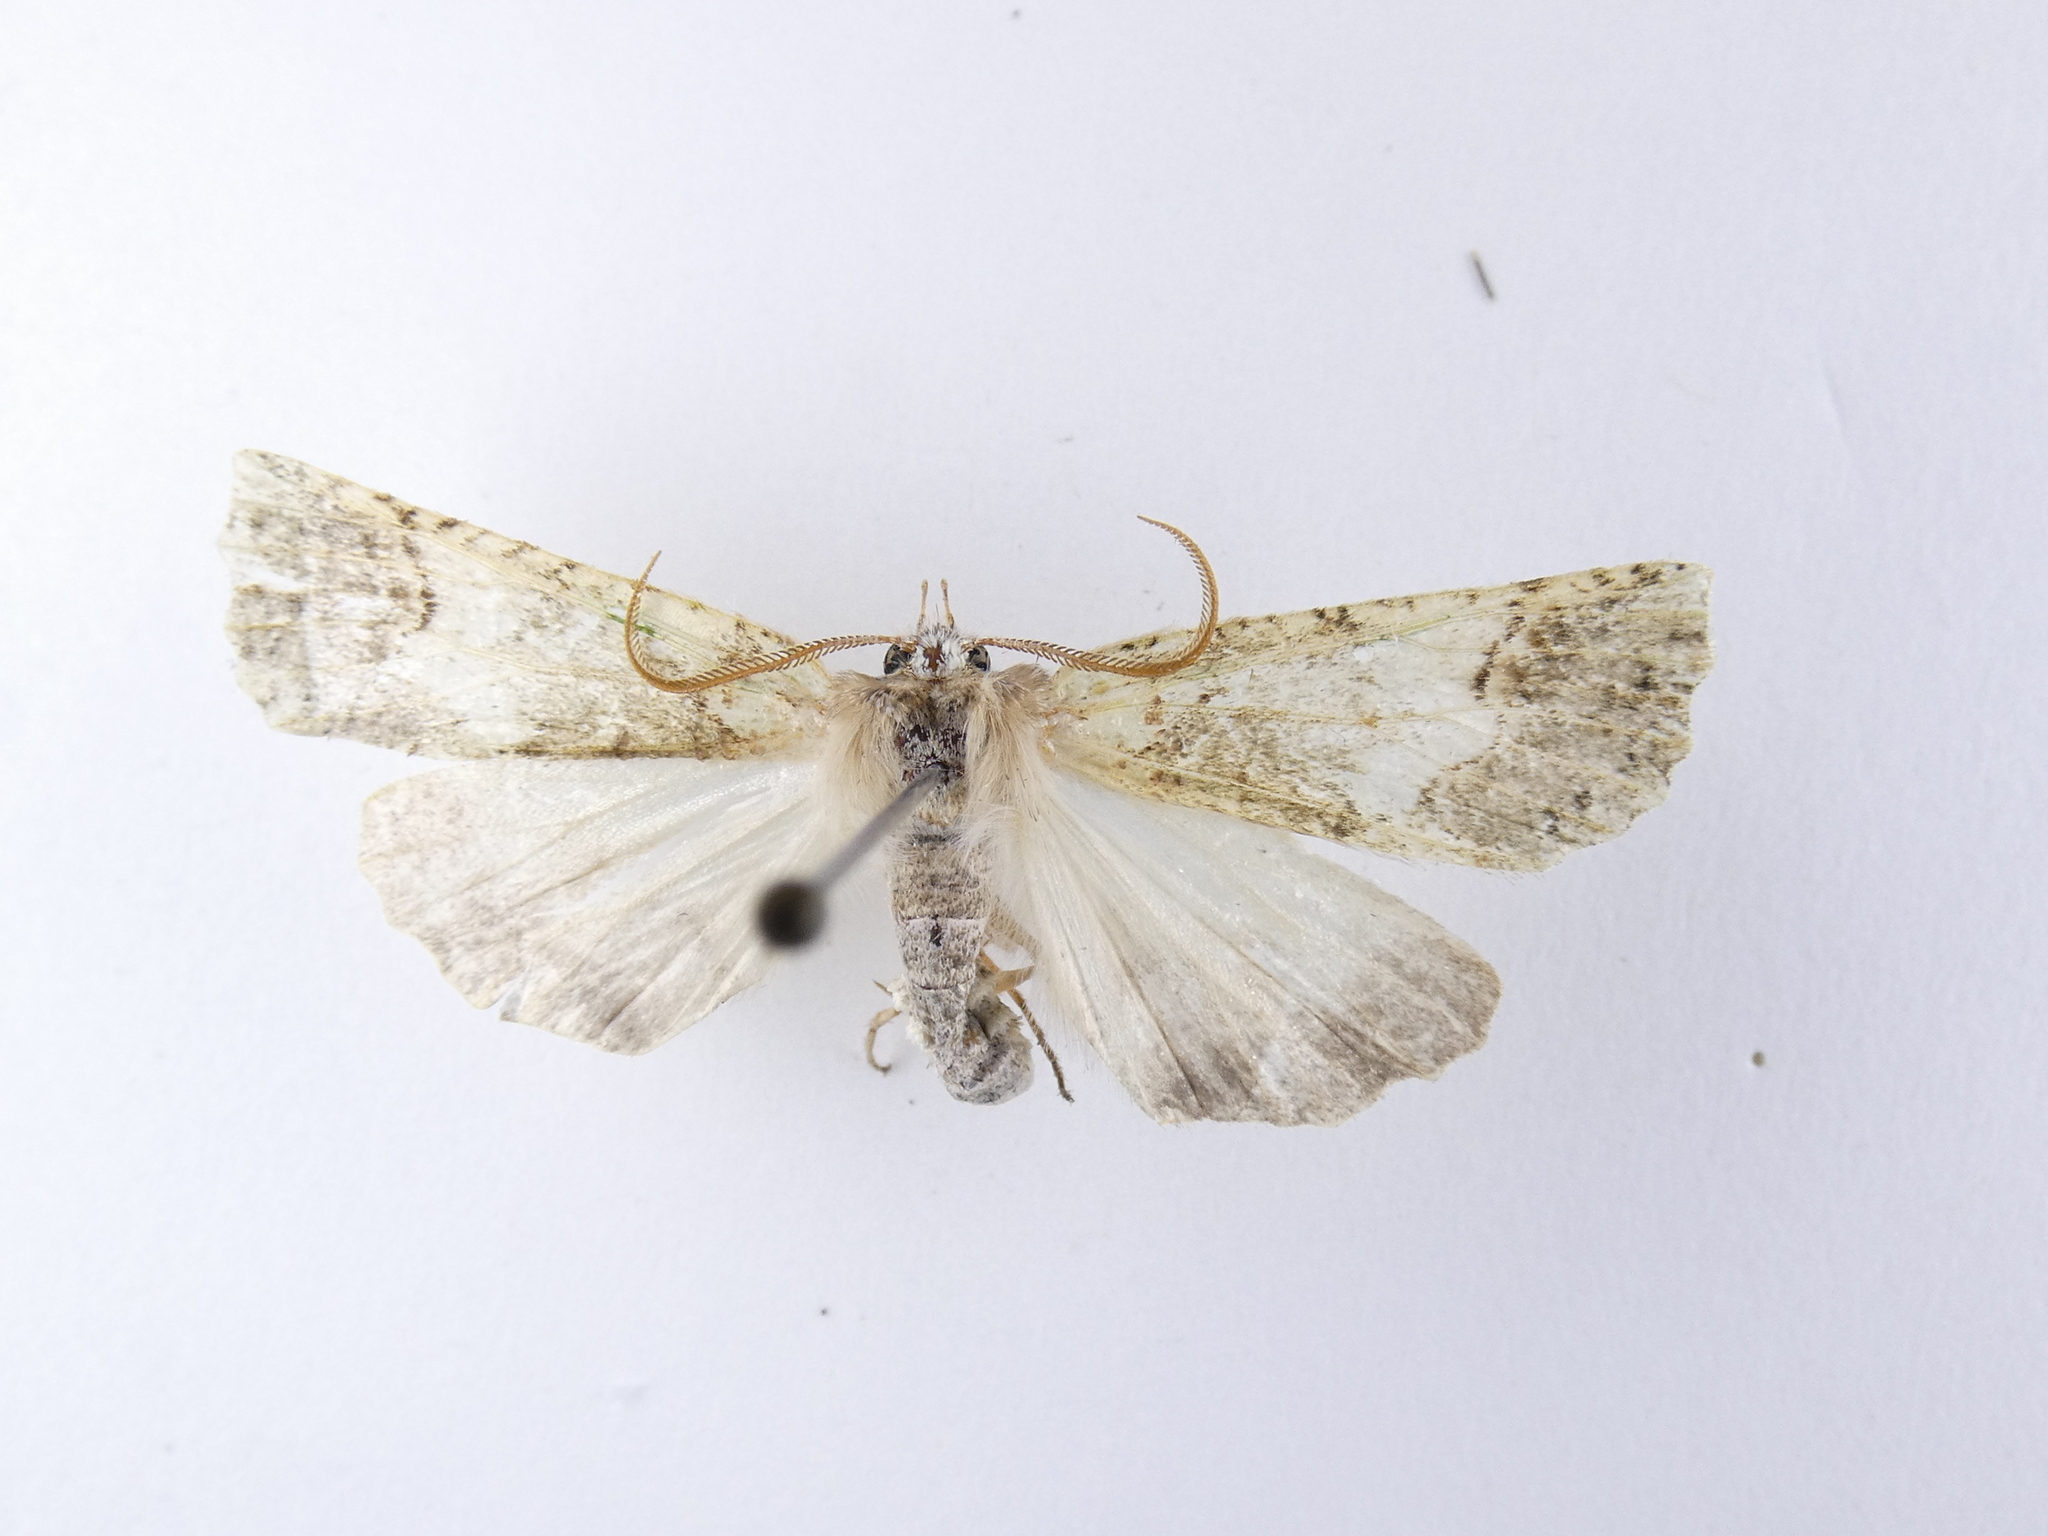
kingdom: Animalia
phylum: Arthropoda
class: Insecta
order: Lepidoptera
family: Geometridae
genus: Declana
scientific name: Declana floccosa
